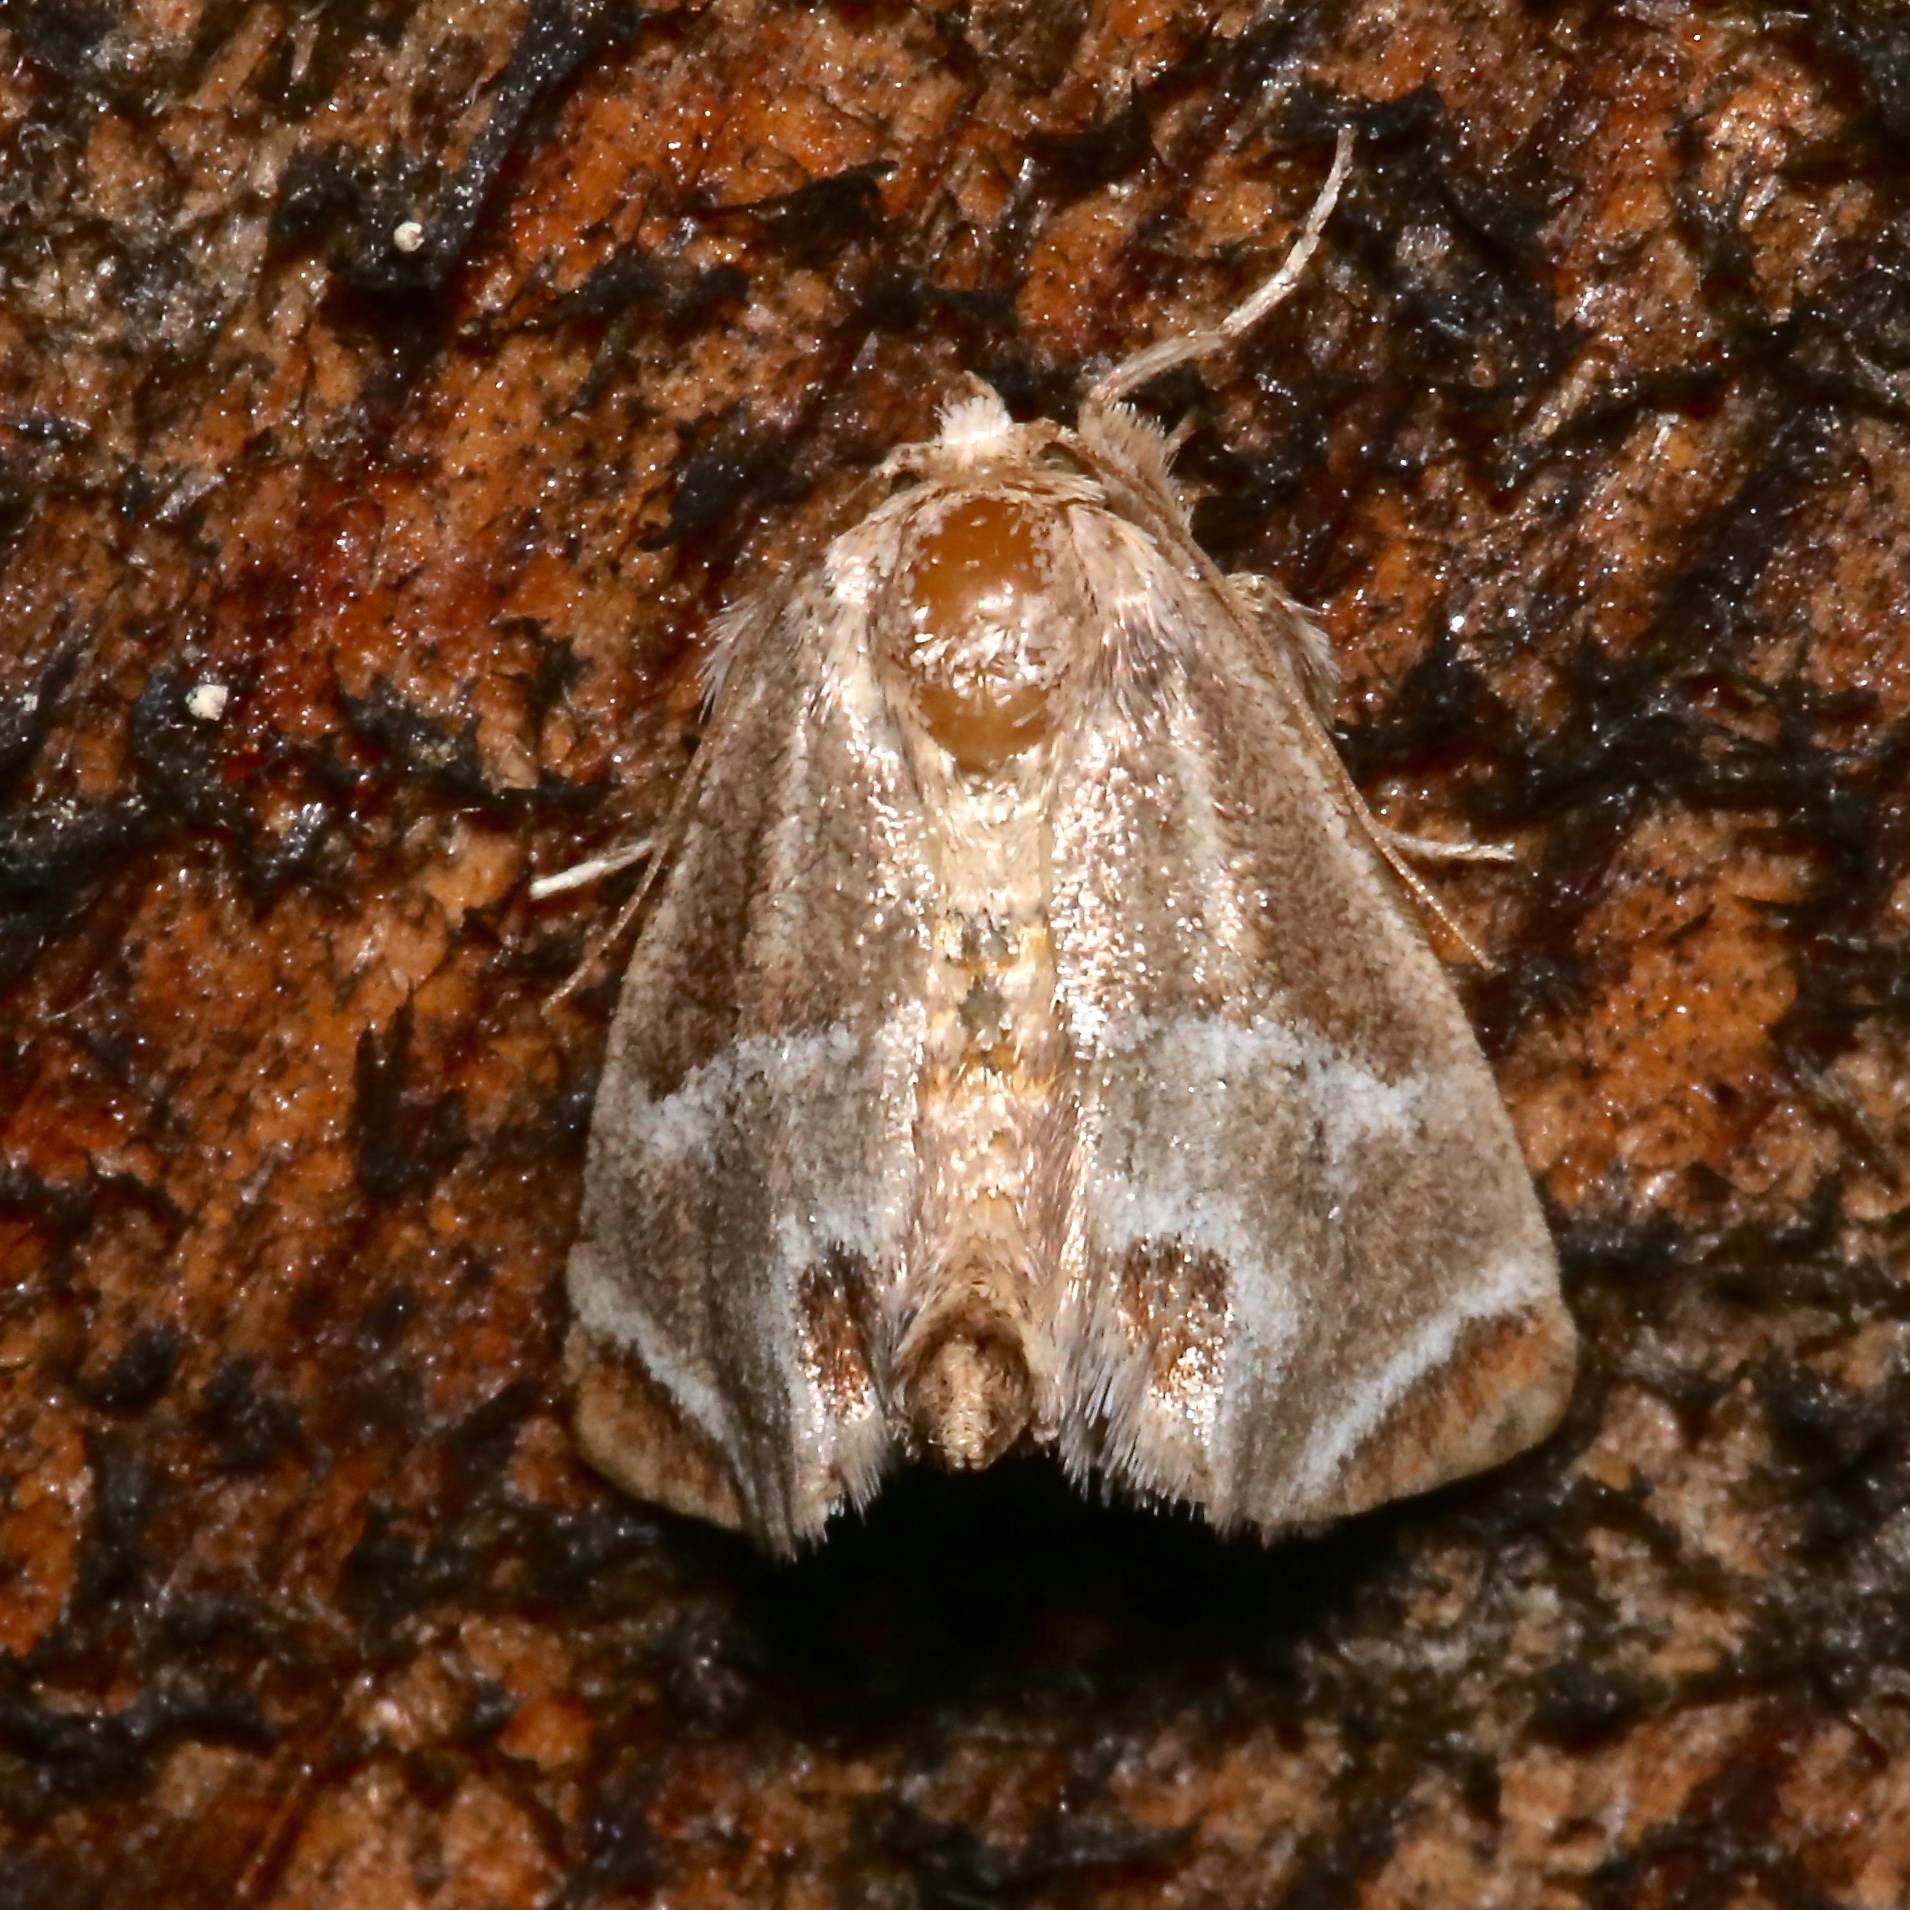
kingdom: Animalia
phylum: Arthropoda
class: Insecta
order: Lepidoptera
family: Limacodidae
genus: Apoda
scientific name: Apoda biguttata
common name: Shagreened slug moth
